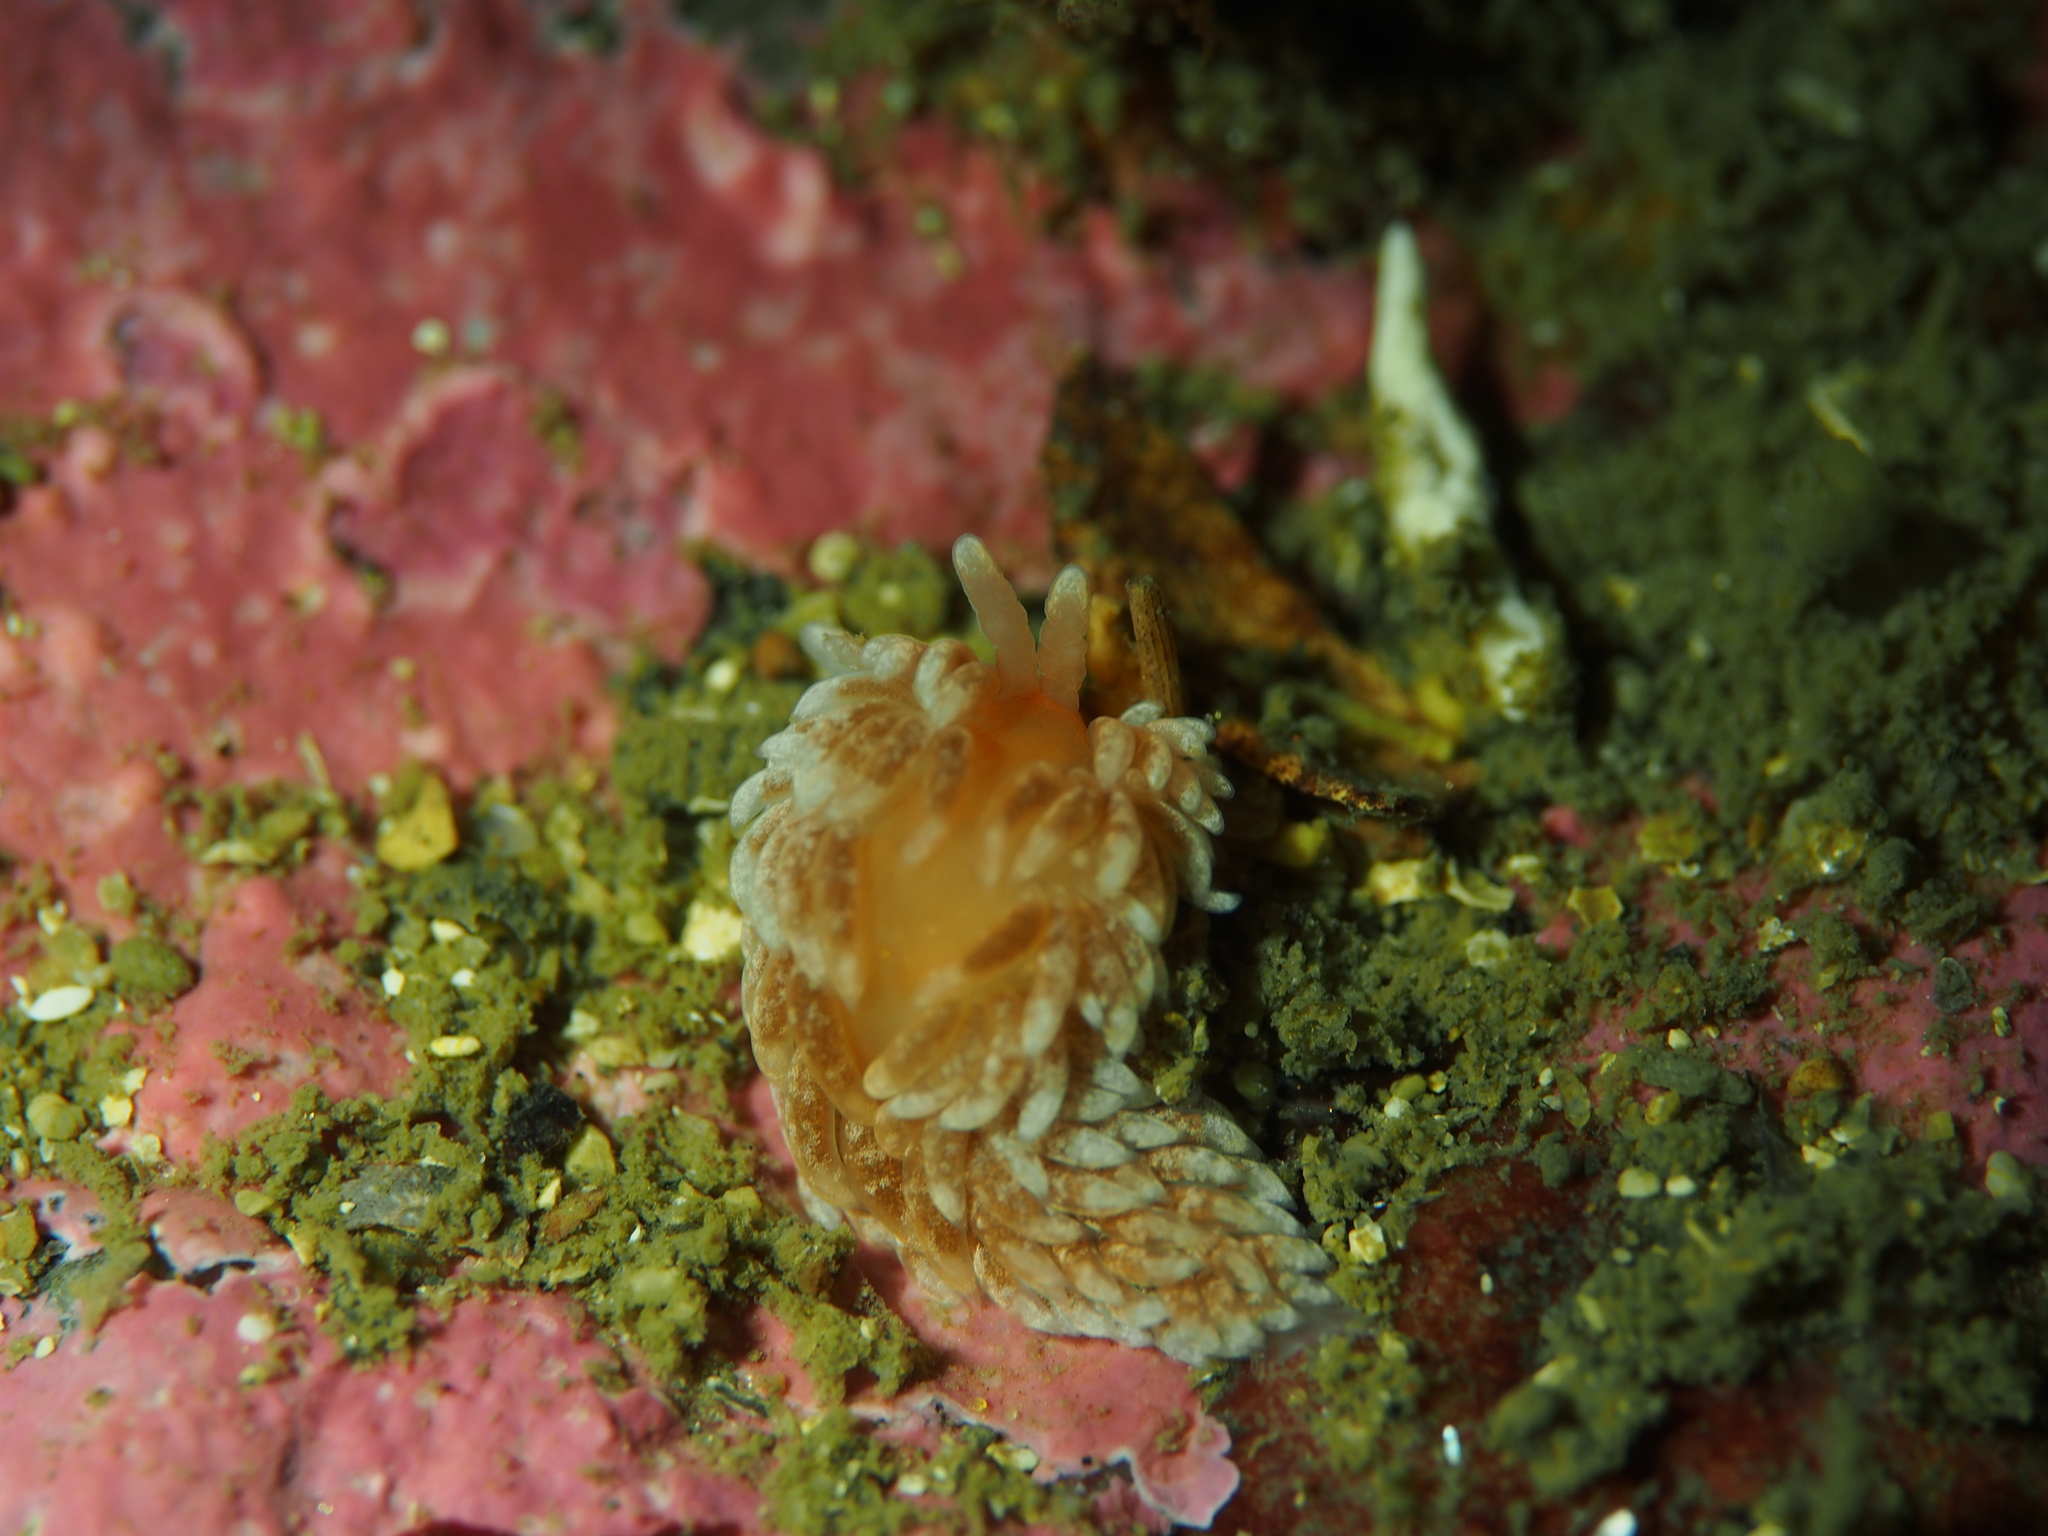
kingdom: Animalia
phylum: Mollusca
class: Gastropoda
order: Nudibranchia
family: Aeolidiidae
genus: Aeolidiella
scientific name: Aeolidiella glauca
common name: Orange-brown aeolid
